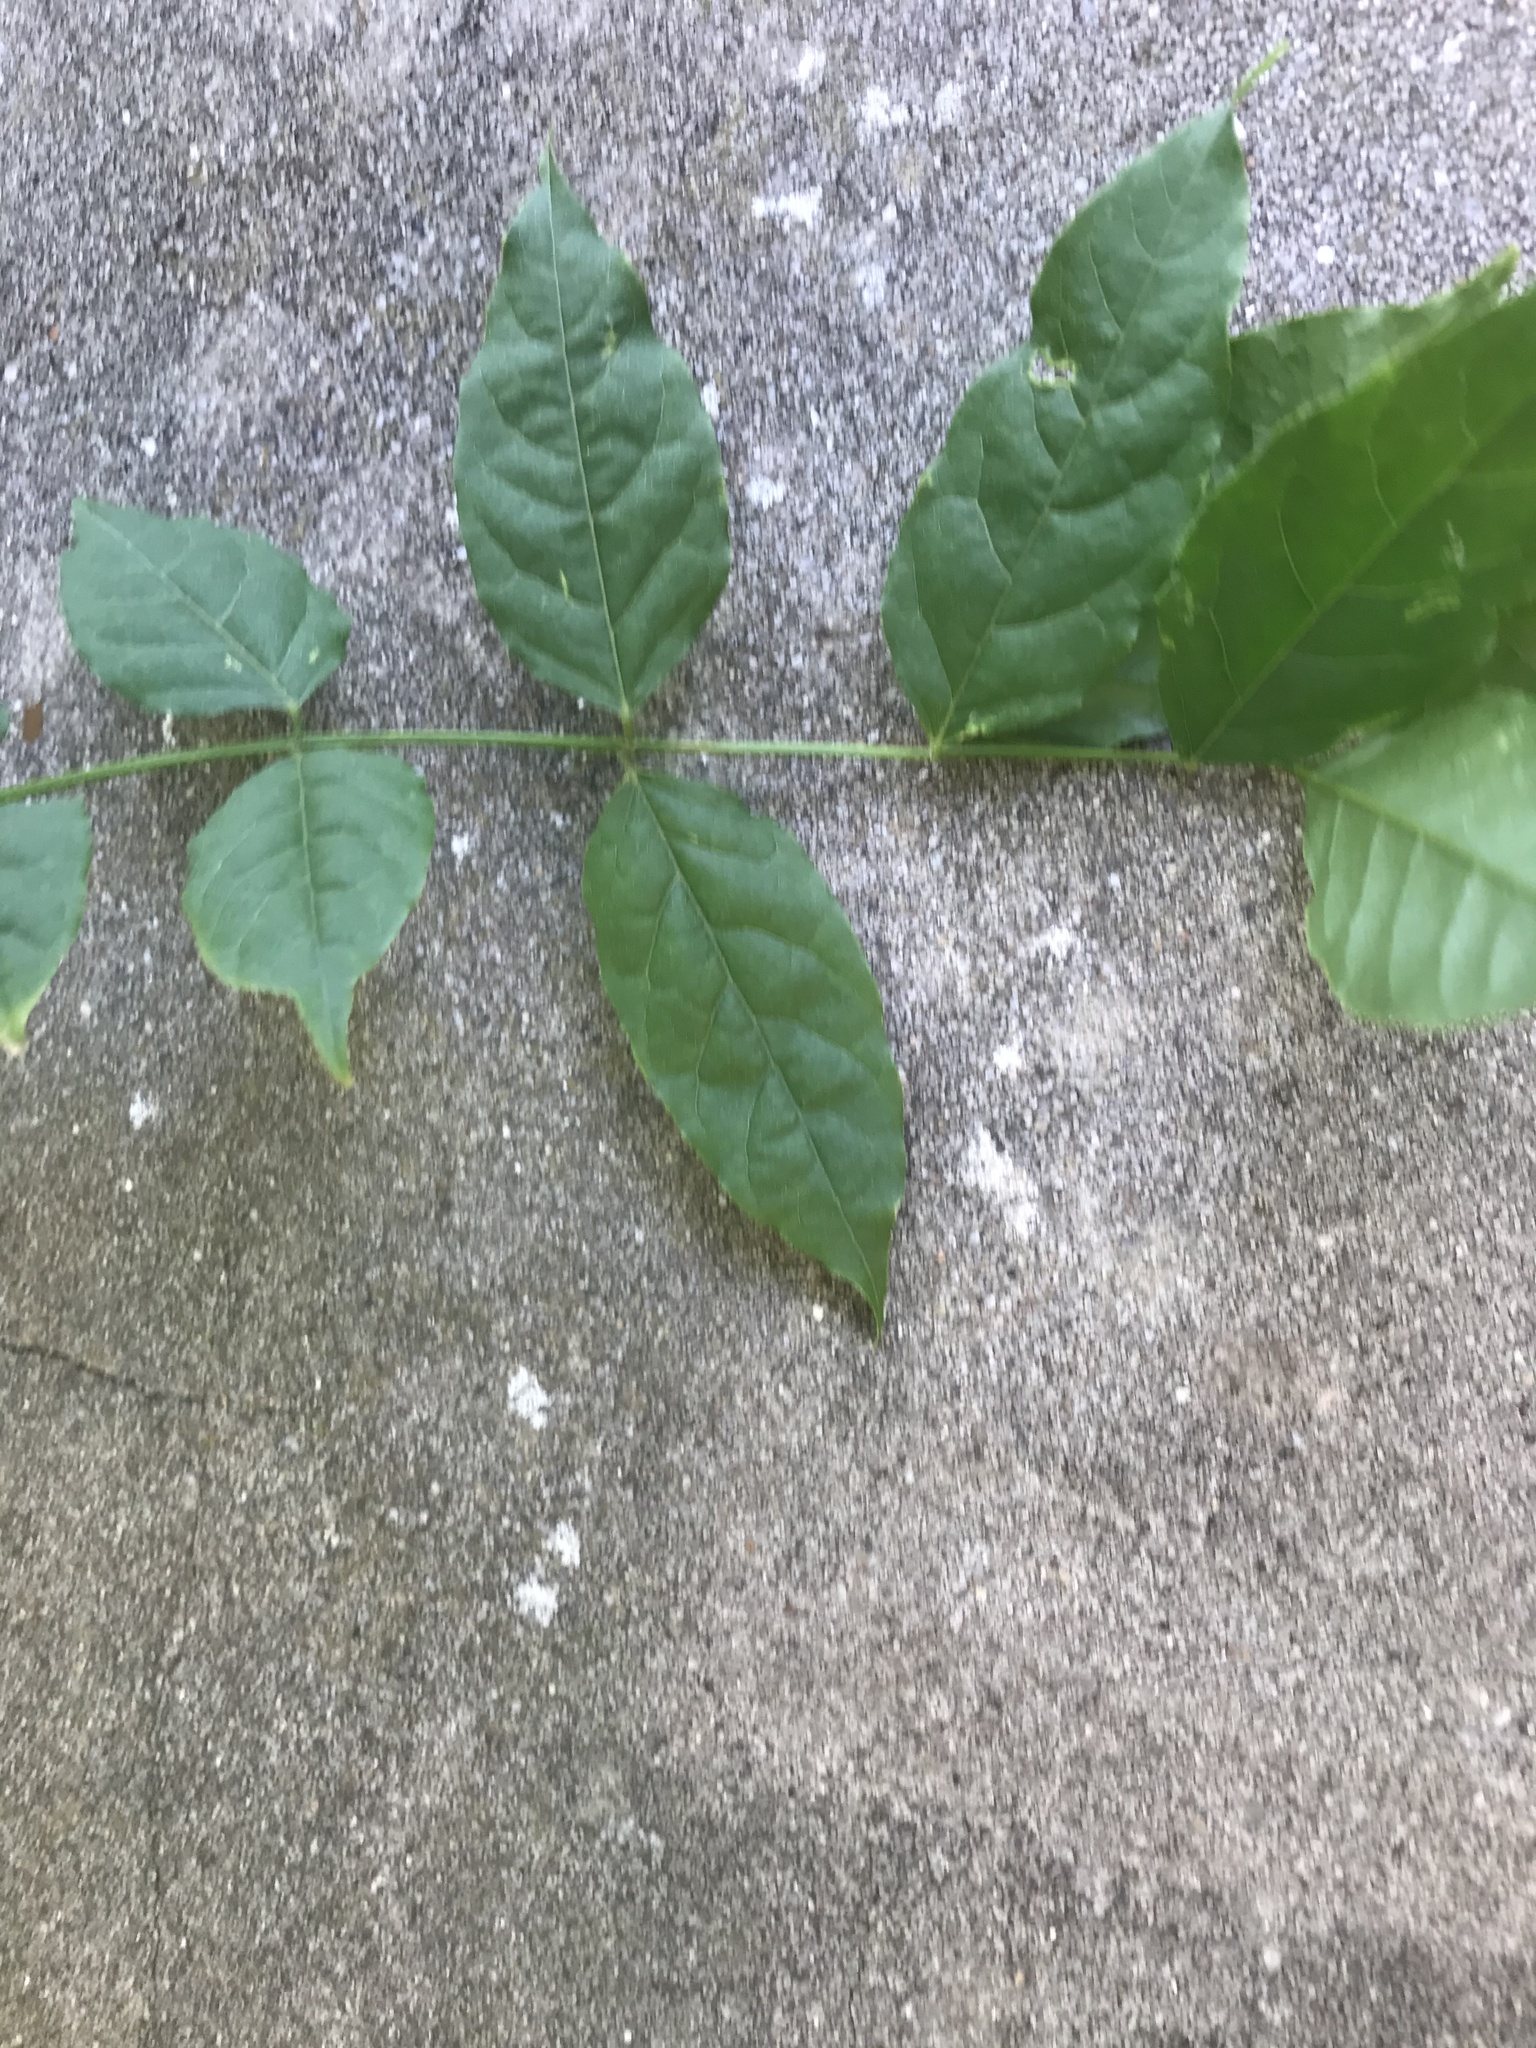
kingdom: Animalia
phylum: Arthropoda
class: Insecta
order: Hymenoptera
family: Apidae
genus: Bombus
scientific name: Bombus lapidarius
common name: Large red-tailed humble-bee
